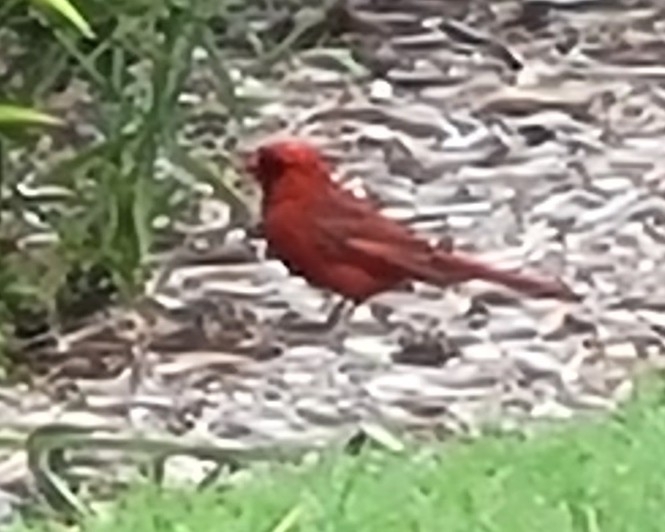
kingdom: Animalia
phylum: Chordata
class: Aves
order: Passeriformes
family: Cardinalidae
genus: Cardinalis
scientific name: Cardinalis cardinalis
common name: Northern cardinal
